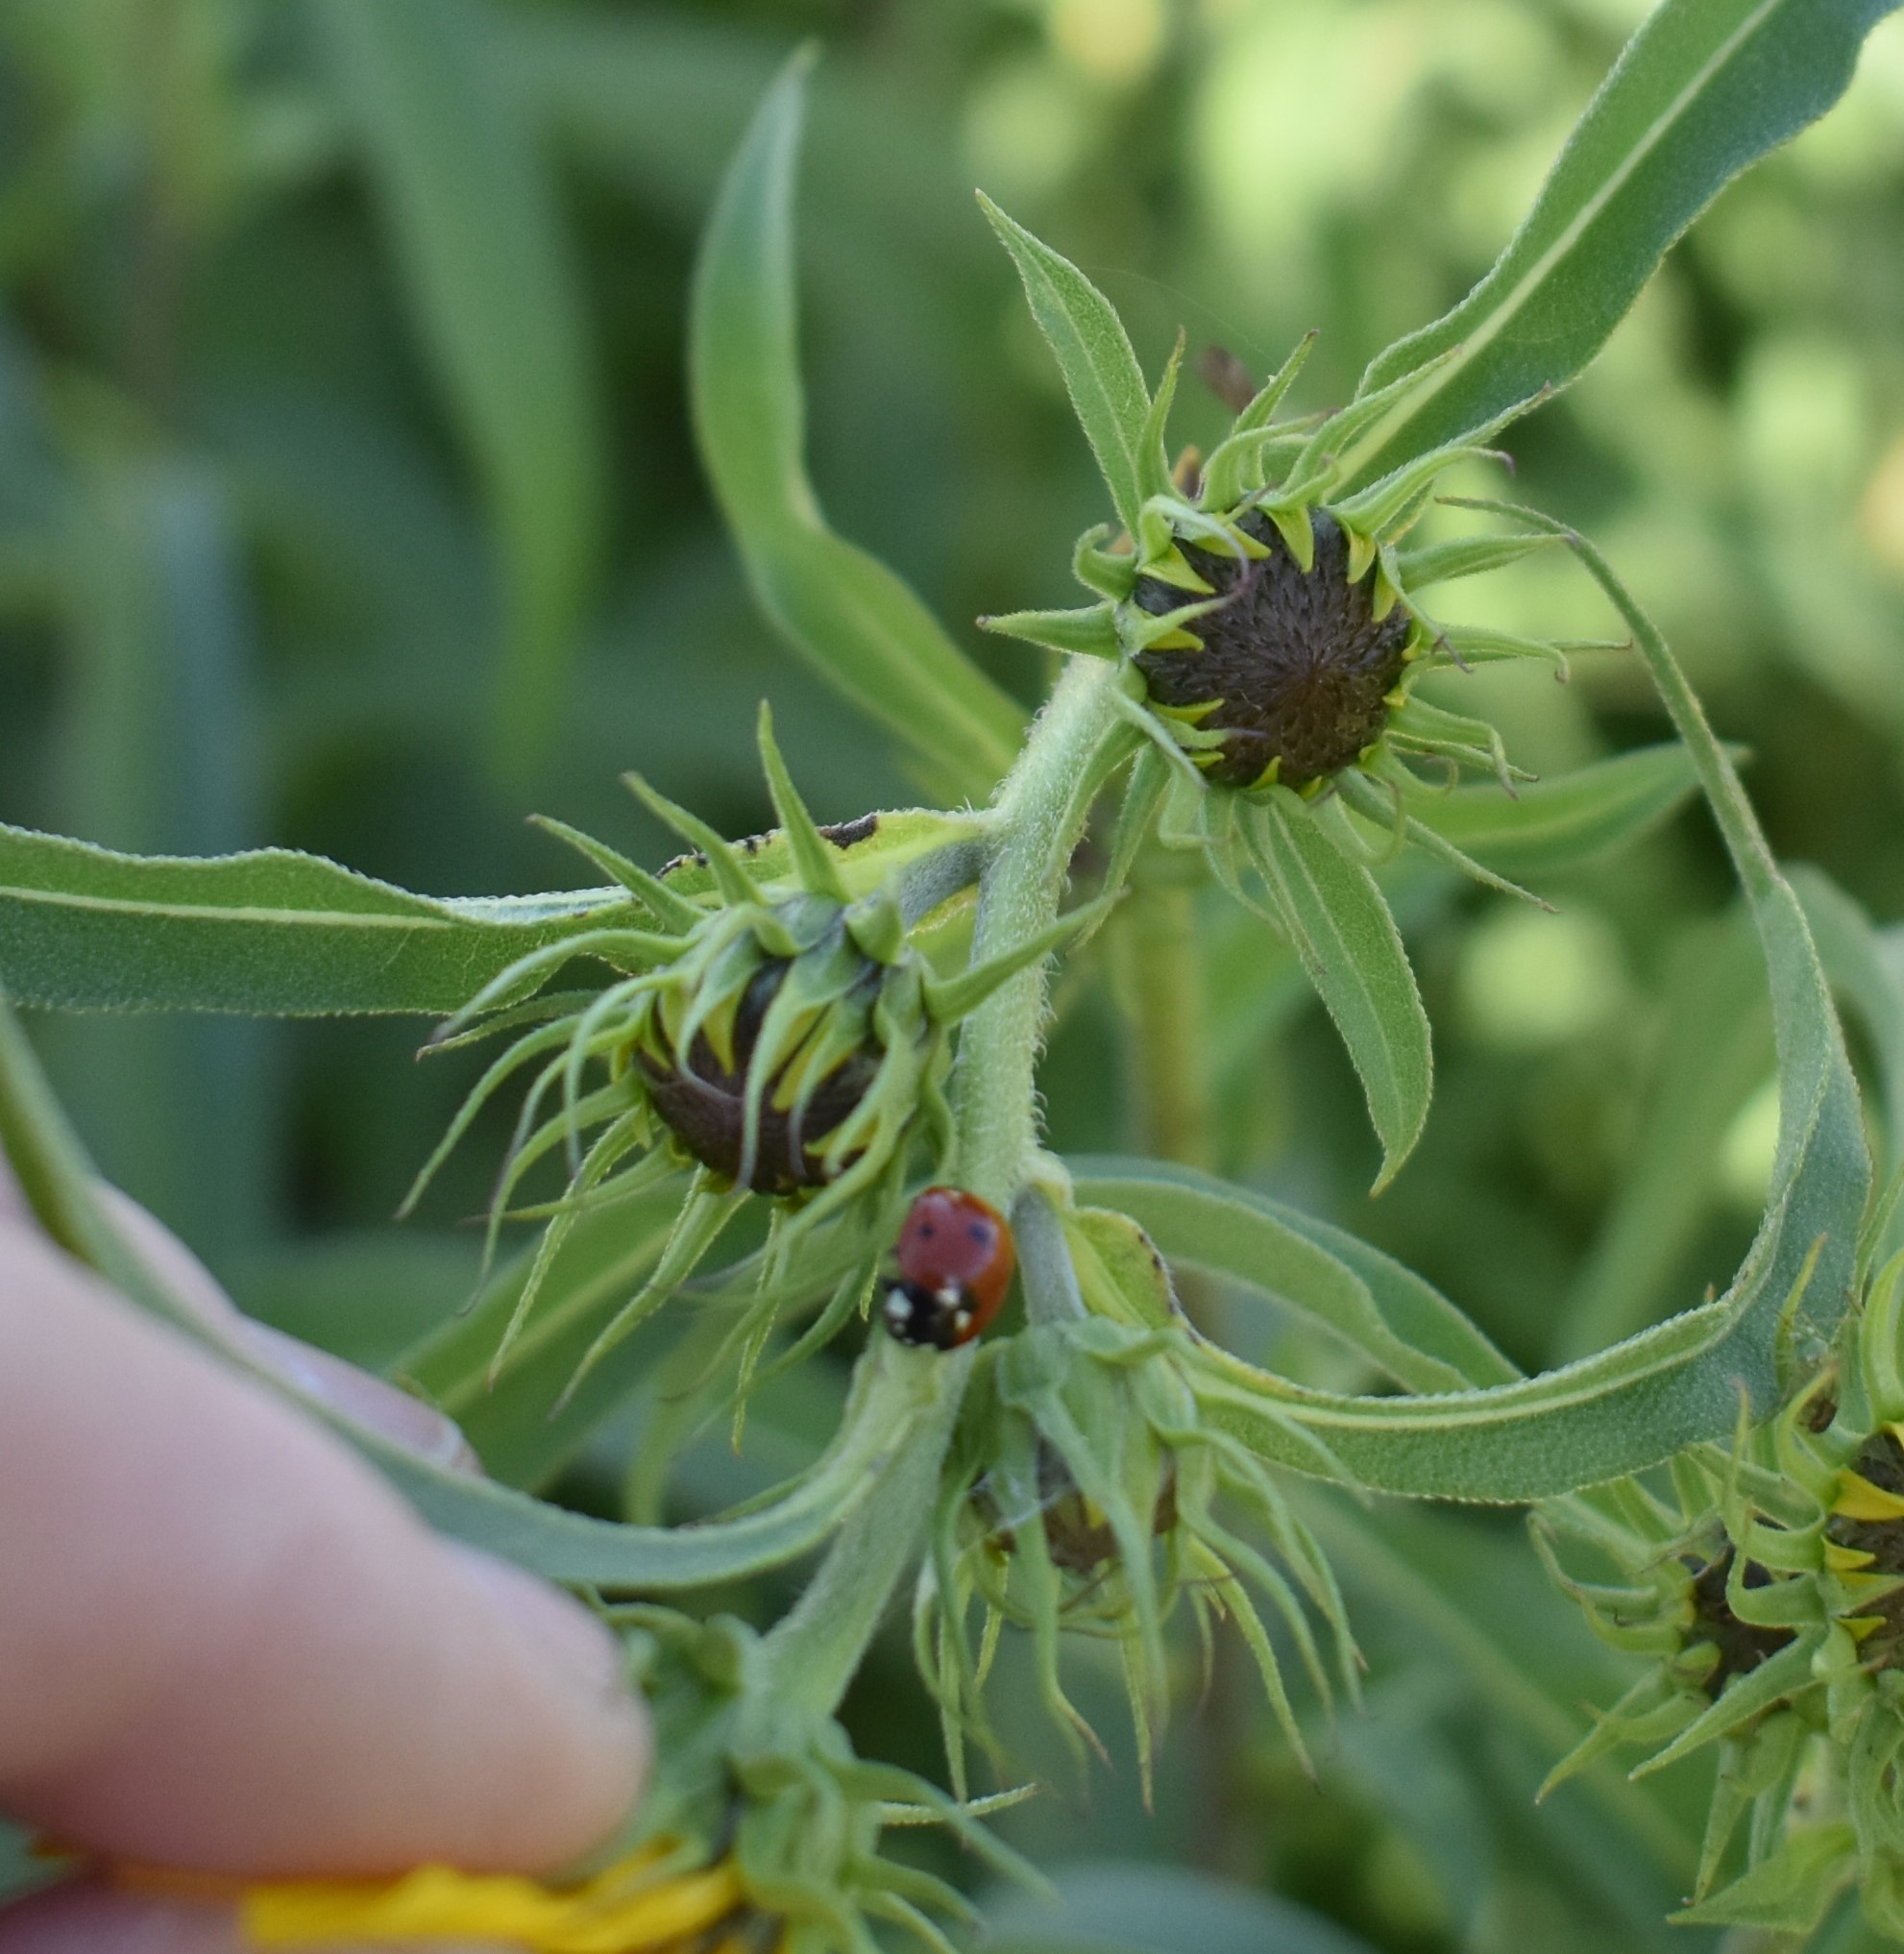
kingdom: Animalia
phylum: Arthropoda
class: Insecta
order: Coleoptera
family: Coccinellidae
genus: Coccinella
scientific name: Coccinella septempunctata
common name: Sevenspotted lady beetle
